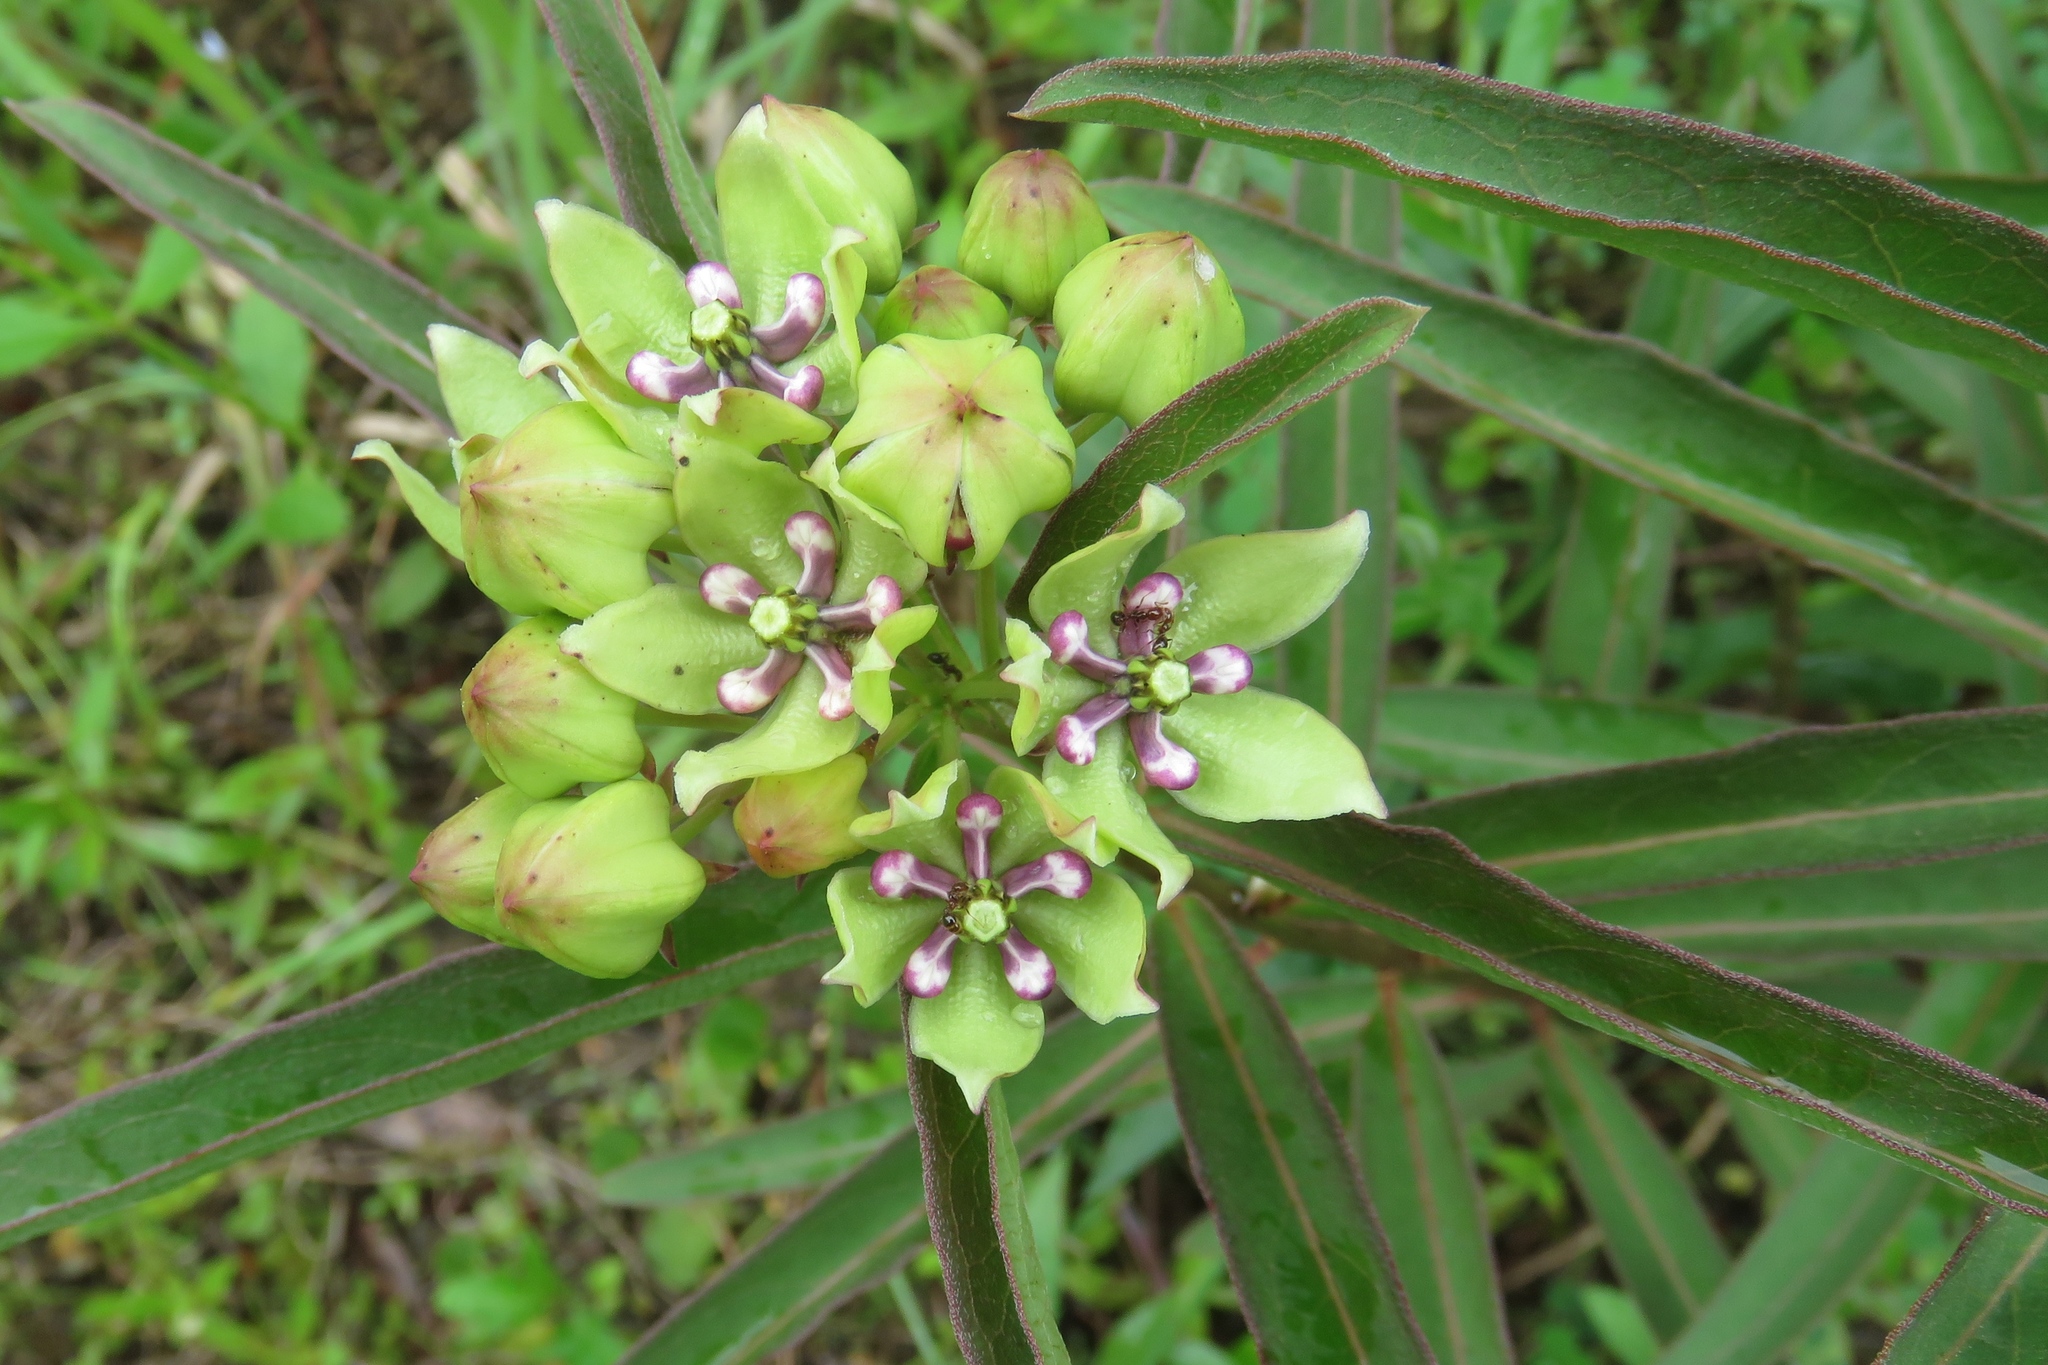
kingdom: Plantae
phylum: Tracheophyta
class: Magnoliopsida
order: Gentianales
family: Apocynaceae
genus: Asclepias
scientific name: Asclepias viridis
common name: Antelope-horns
